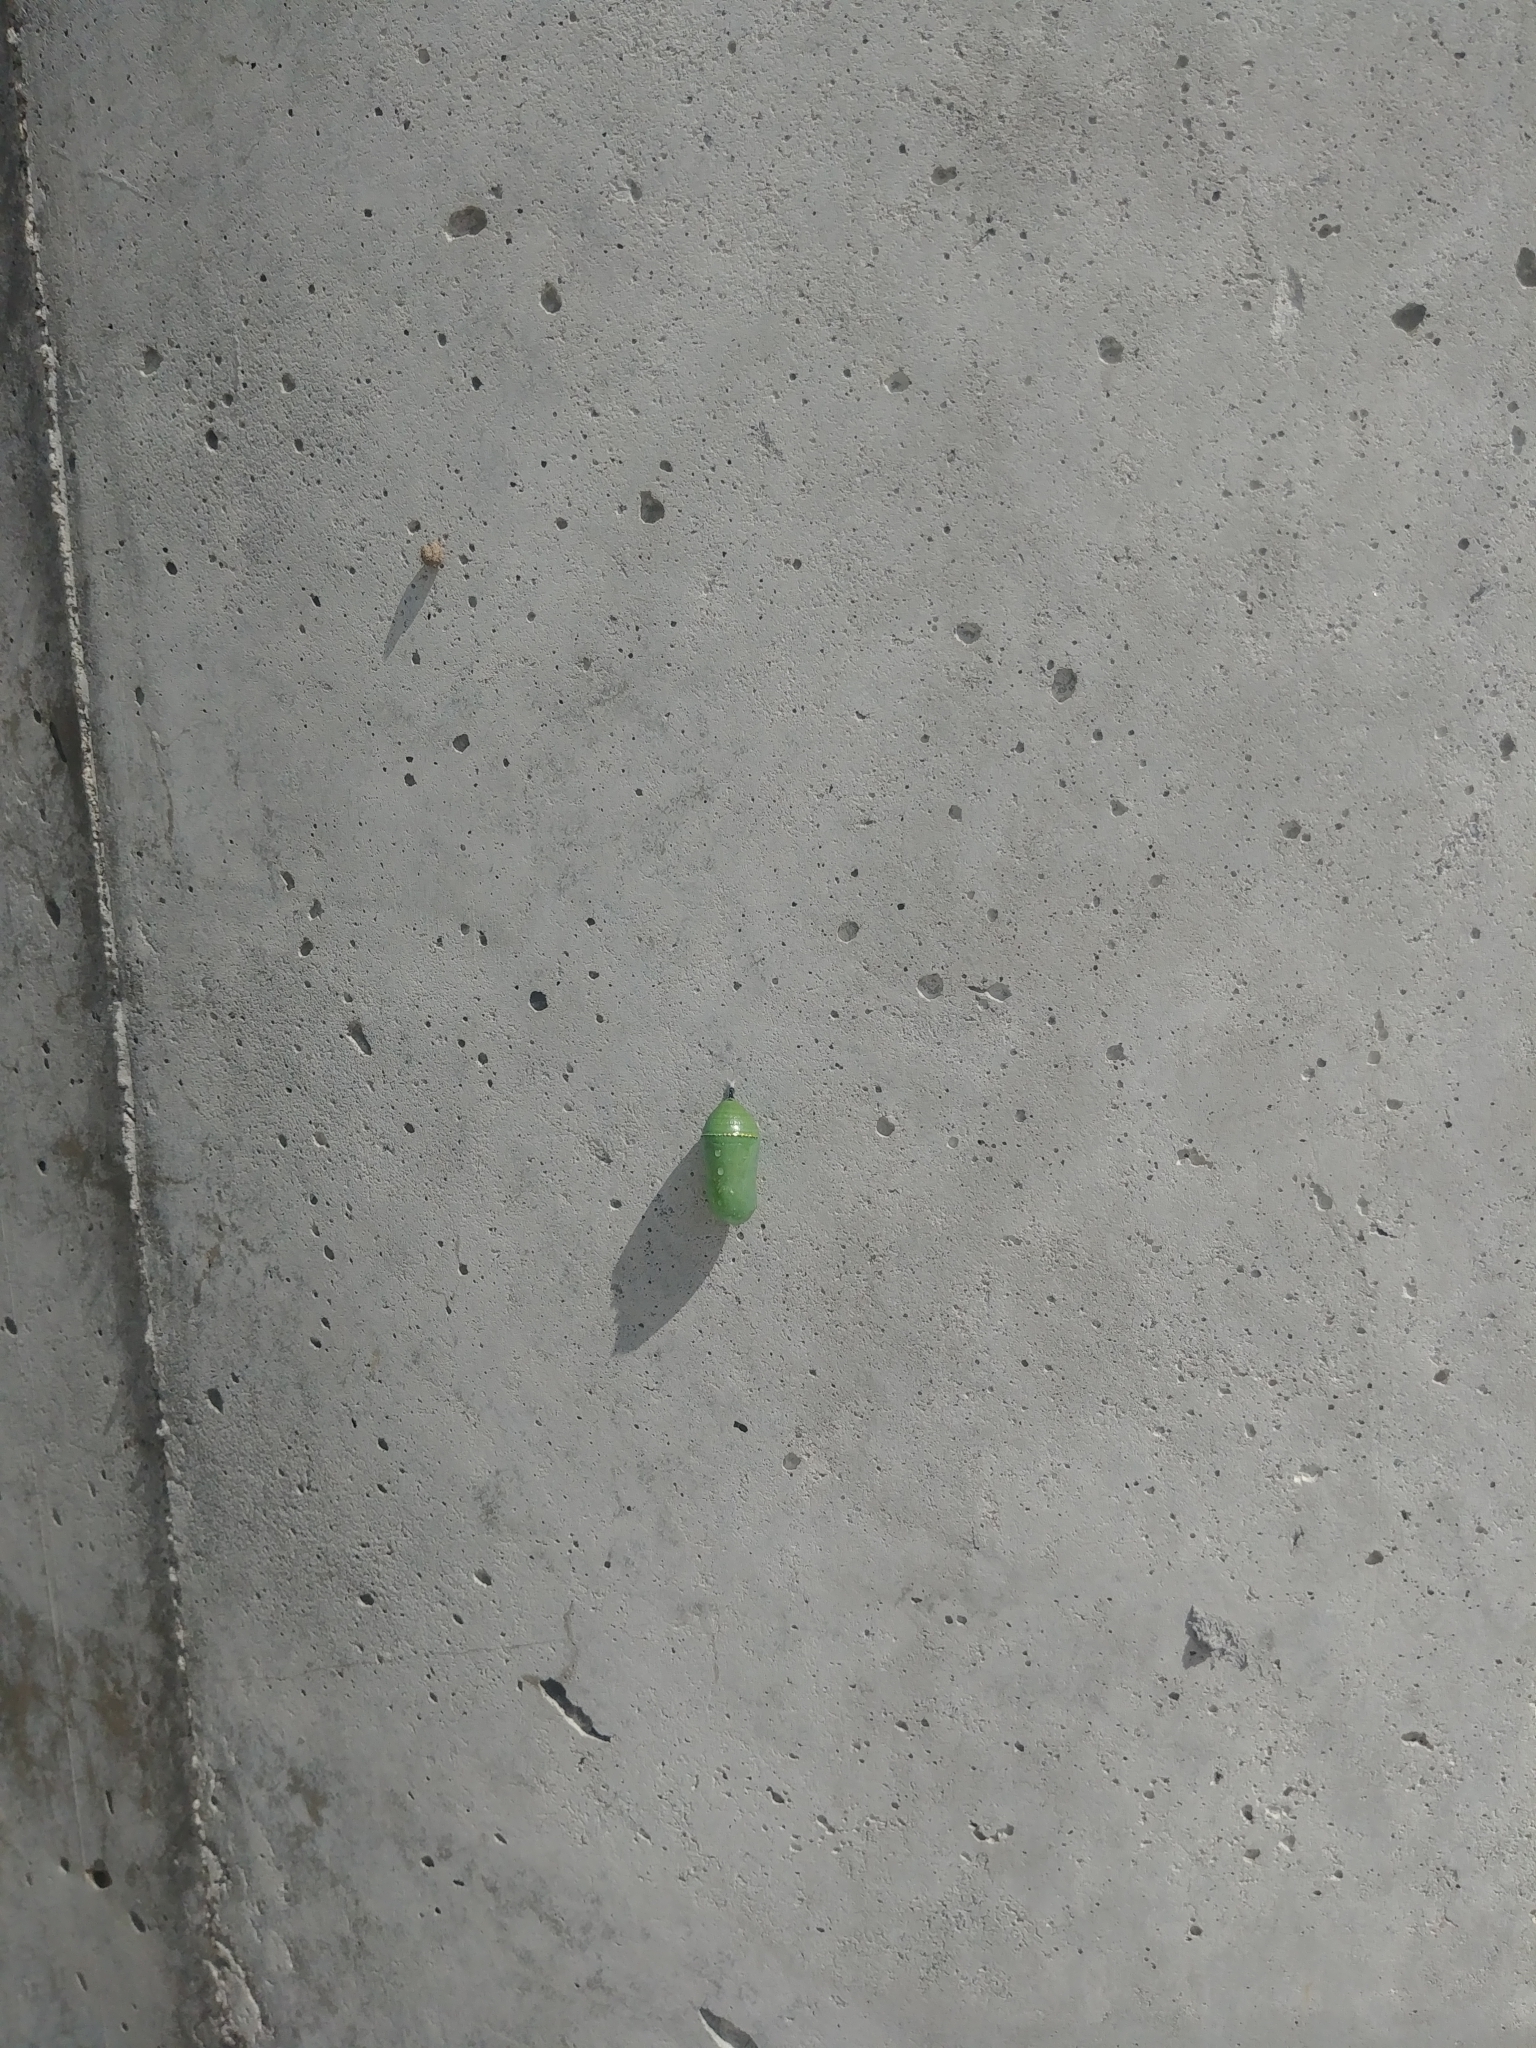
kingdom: Animalia
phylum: Arthropoda
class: Insecta
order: Lepidoptera
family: Nymphalidae
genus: Danaus
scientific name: Danaus plexippus
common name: Monarch
